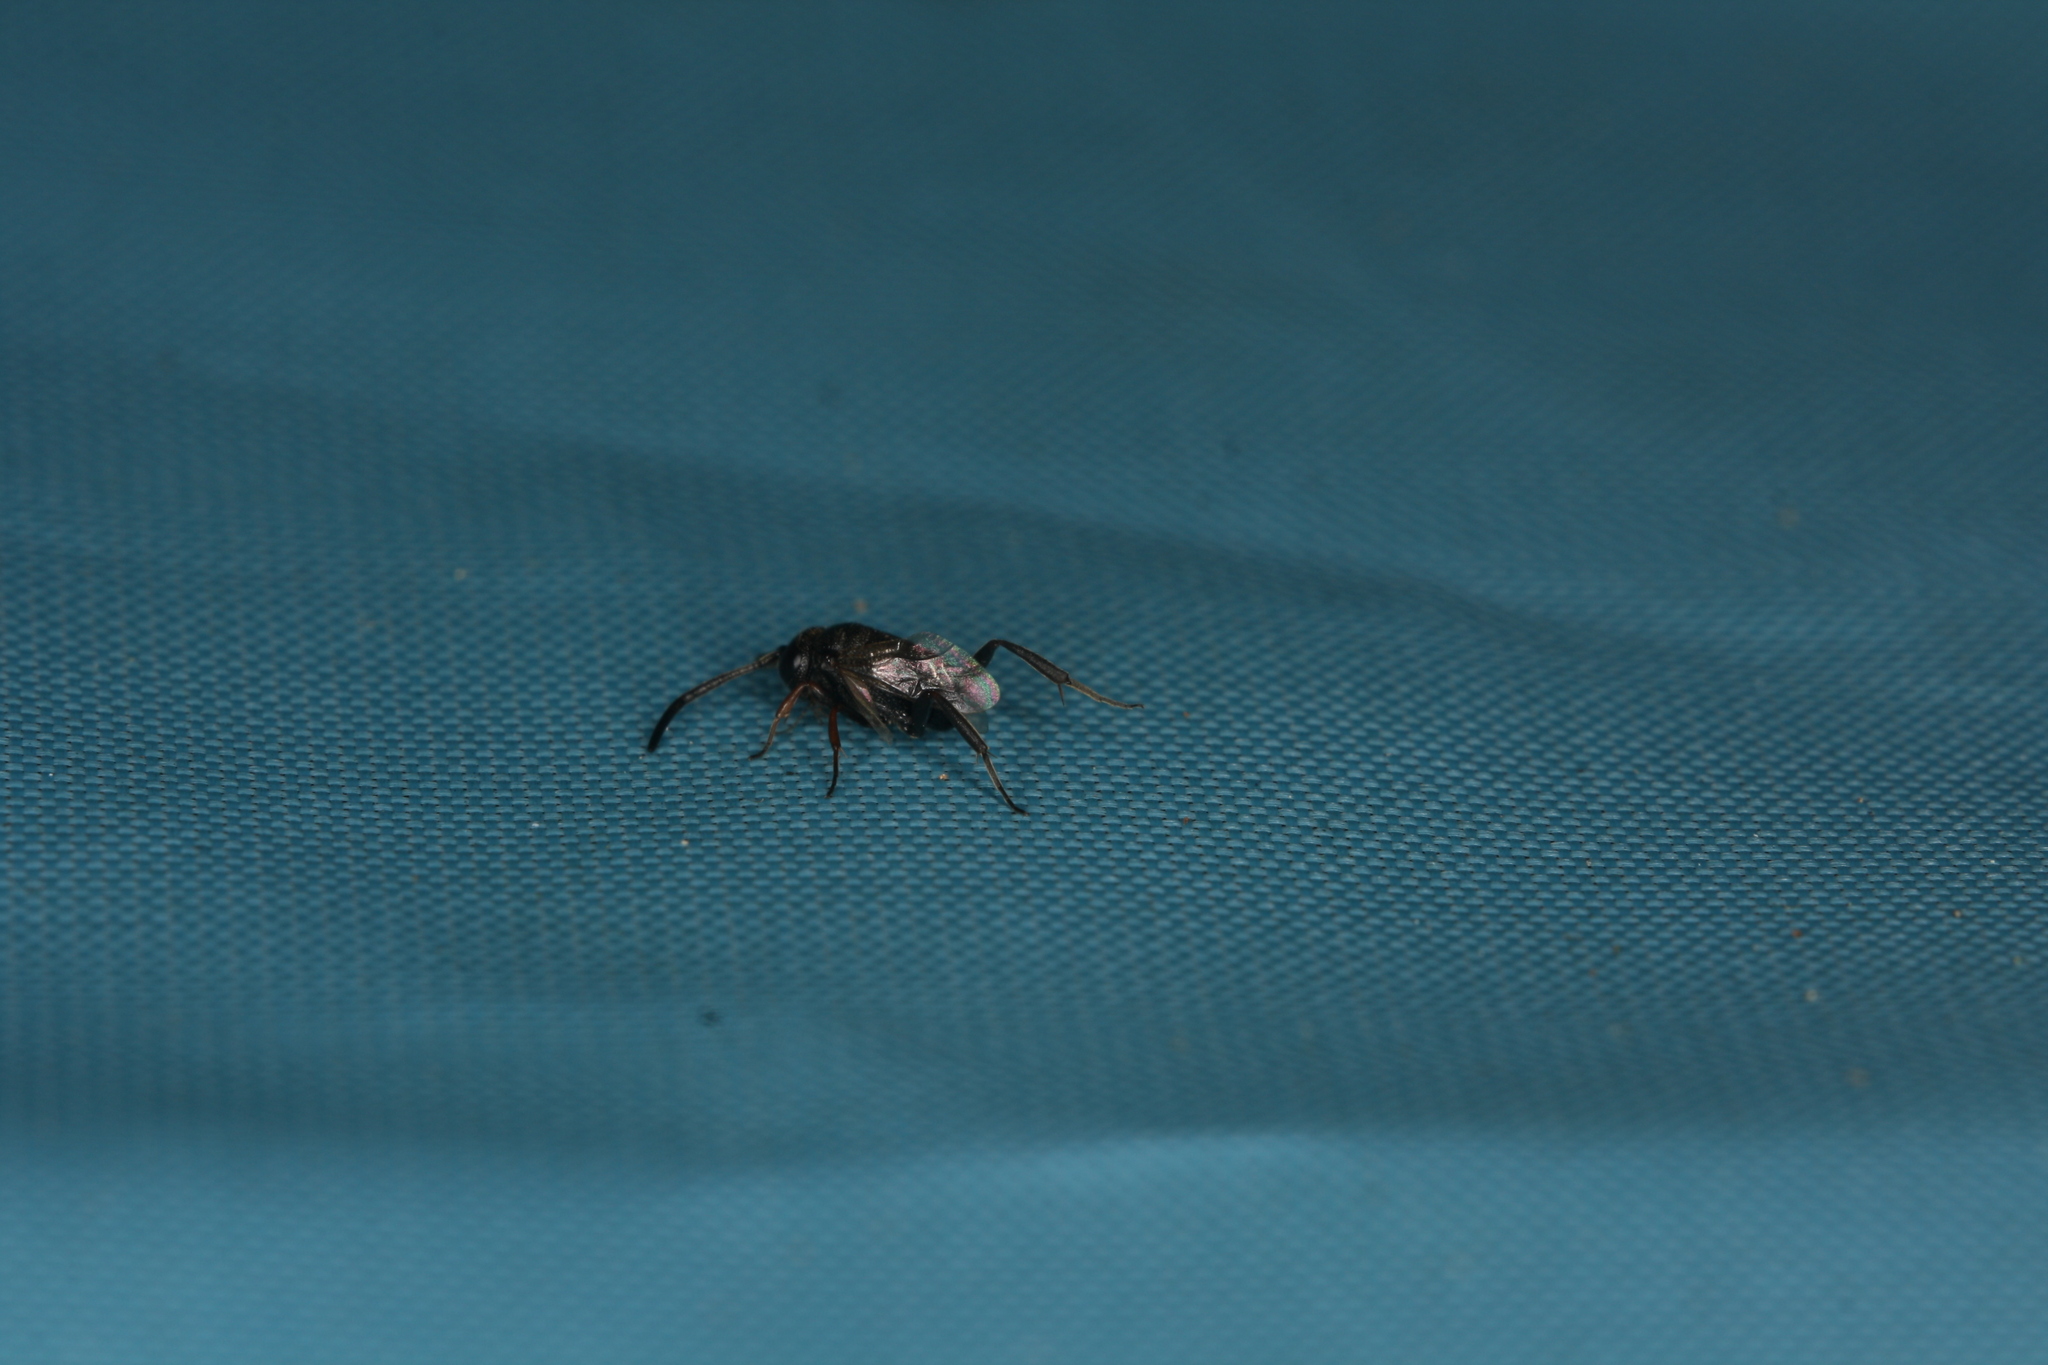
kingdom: Animalia
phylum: Arthropoda
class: Insecta
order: Hymenoptera
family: Evaniidae
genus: Brachygaster
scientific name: Brachygaster minutus
